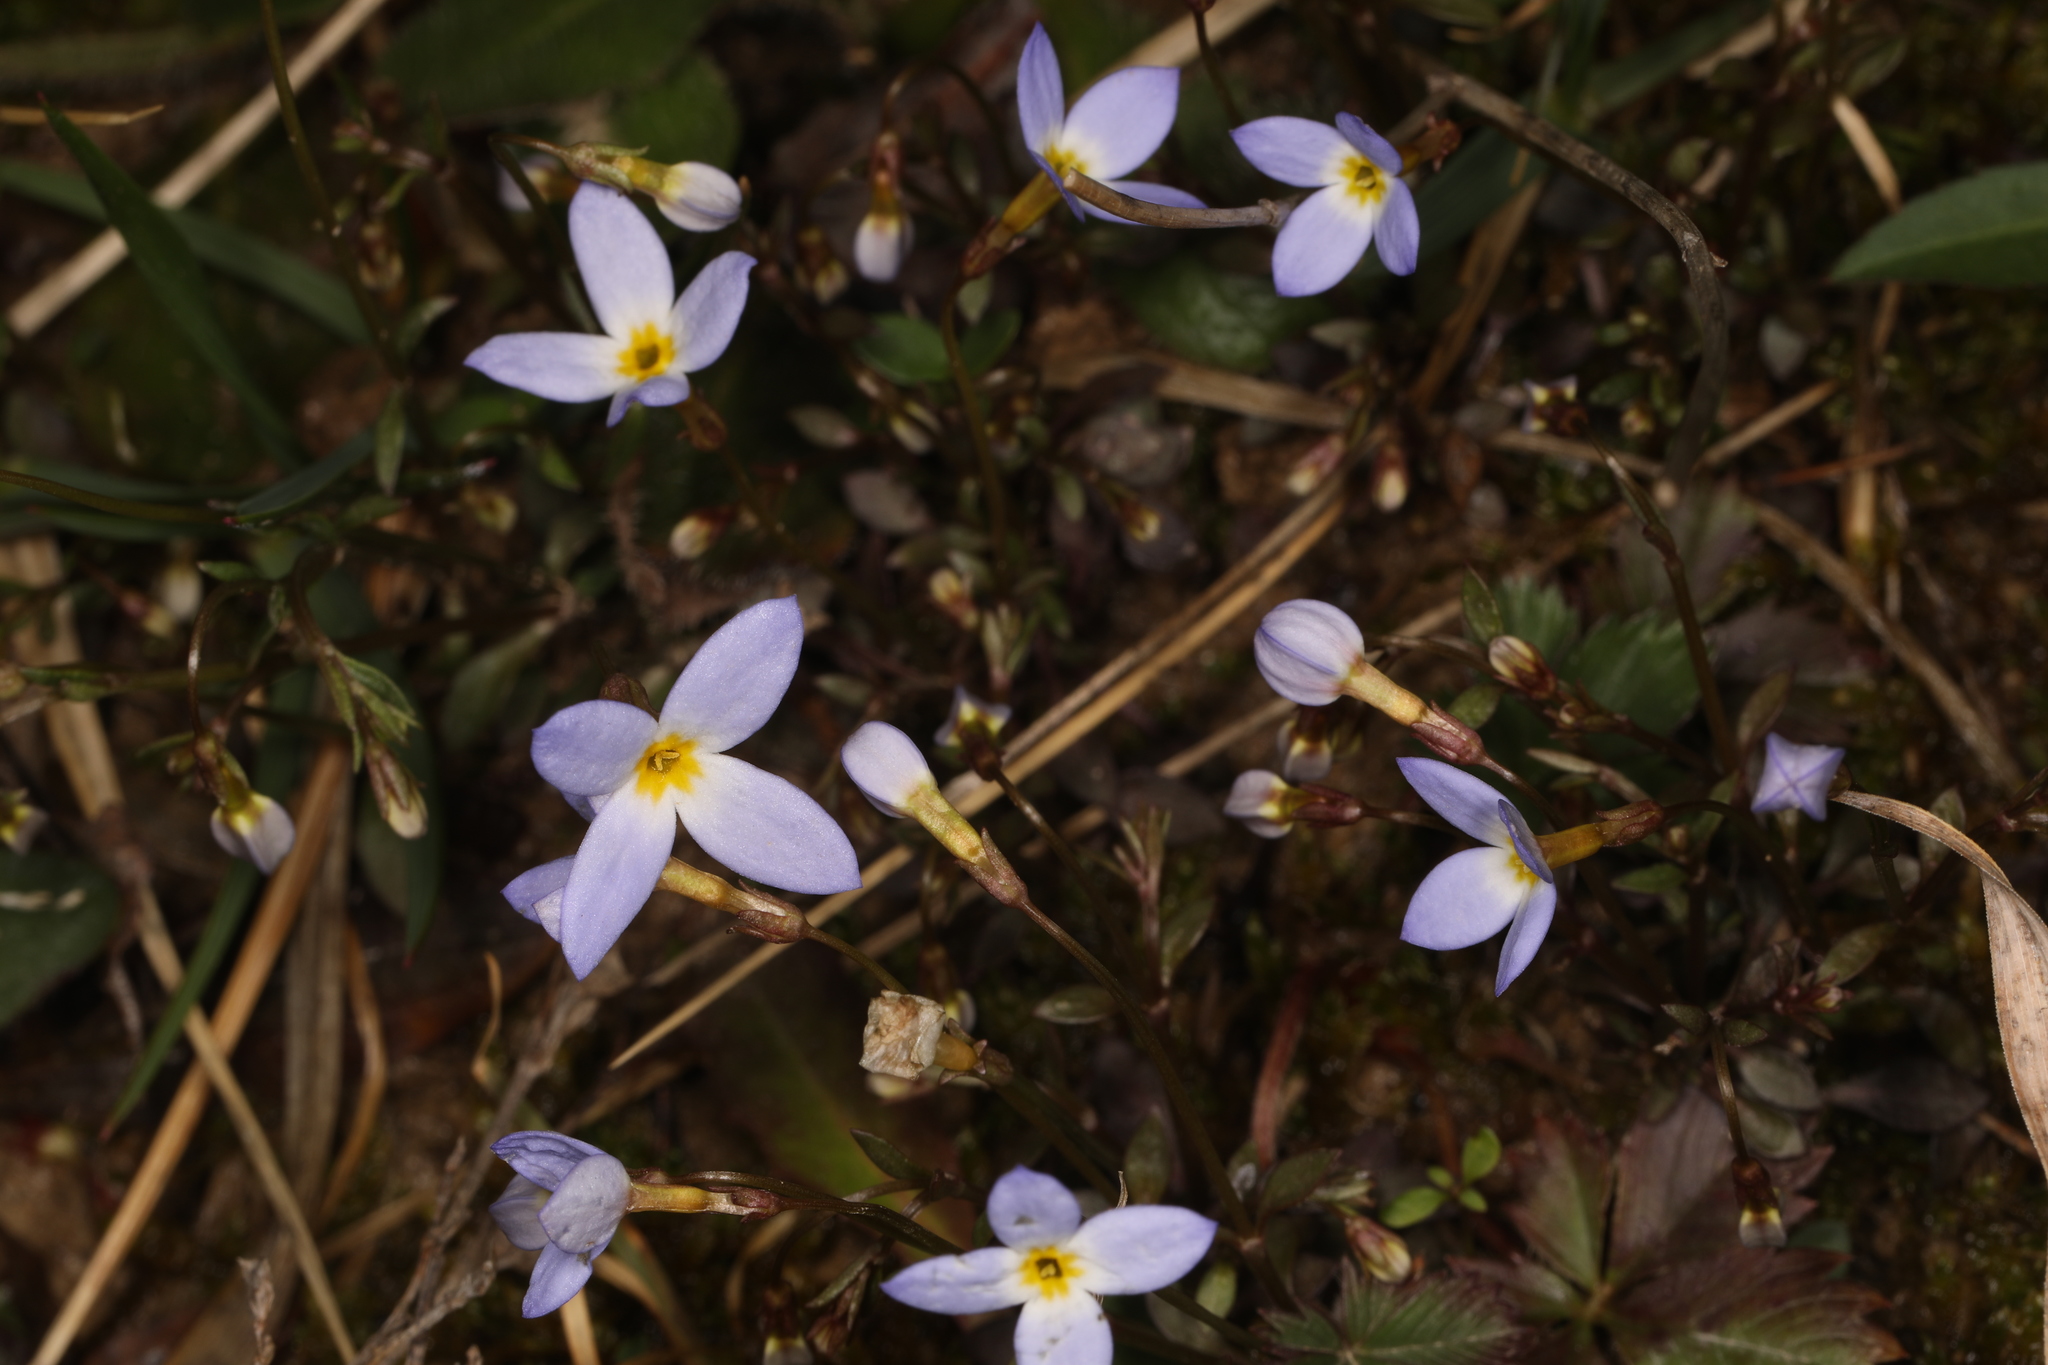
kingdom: Plantae
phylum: Tracheophyta
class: Magnoliopsida
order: Gentianales
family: Rubiaceae
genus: Houstonia
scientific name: Houstonia caerulea
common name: Bluets
